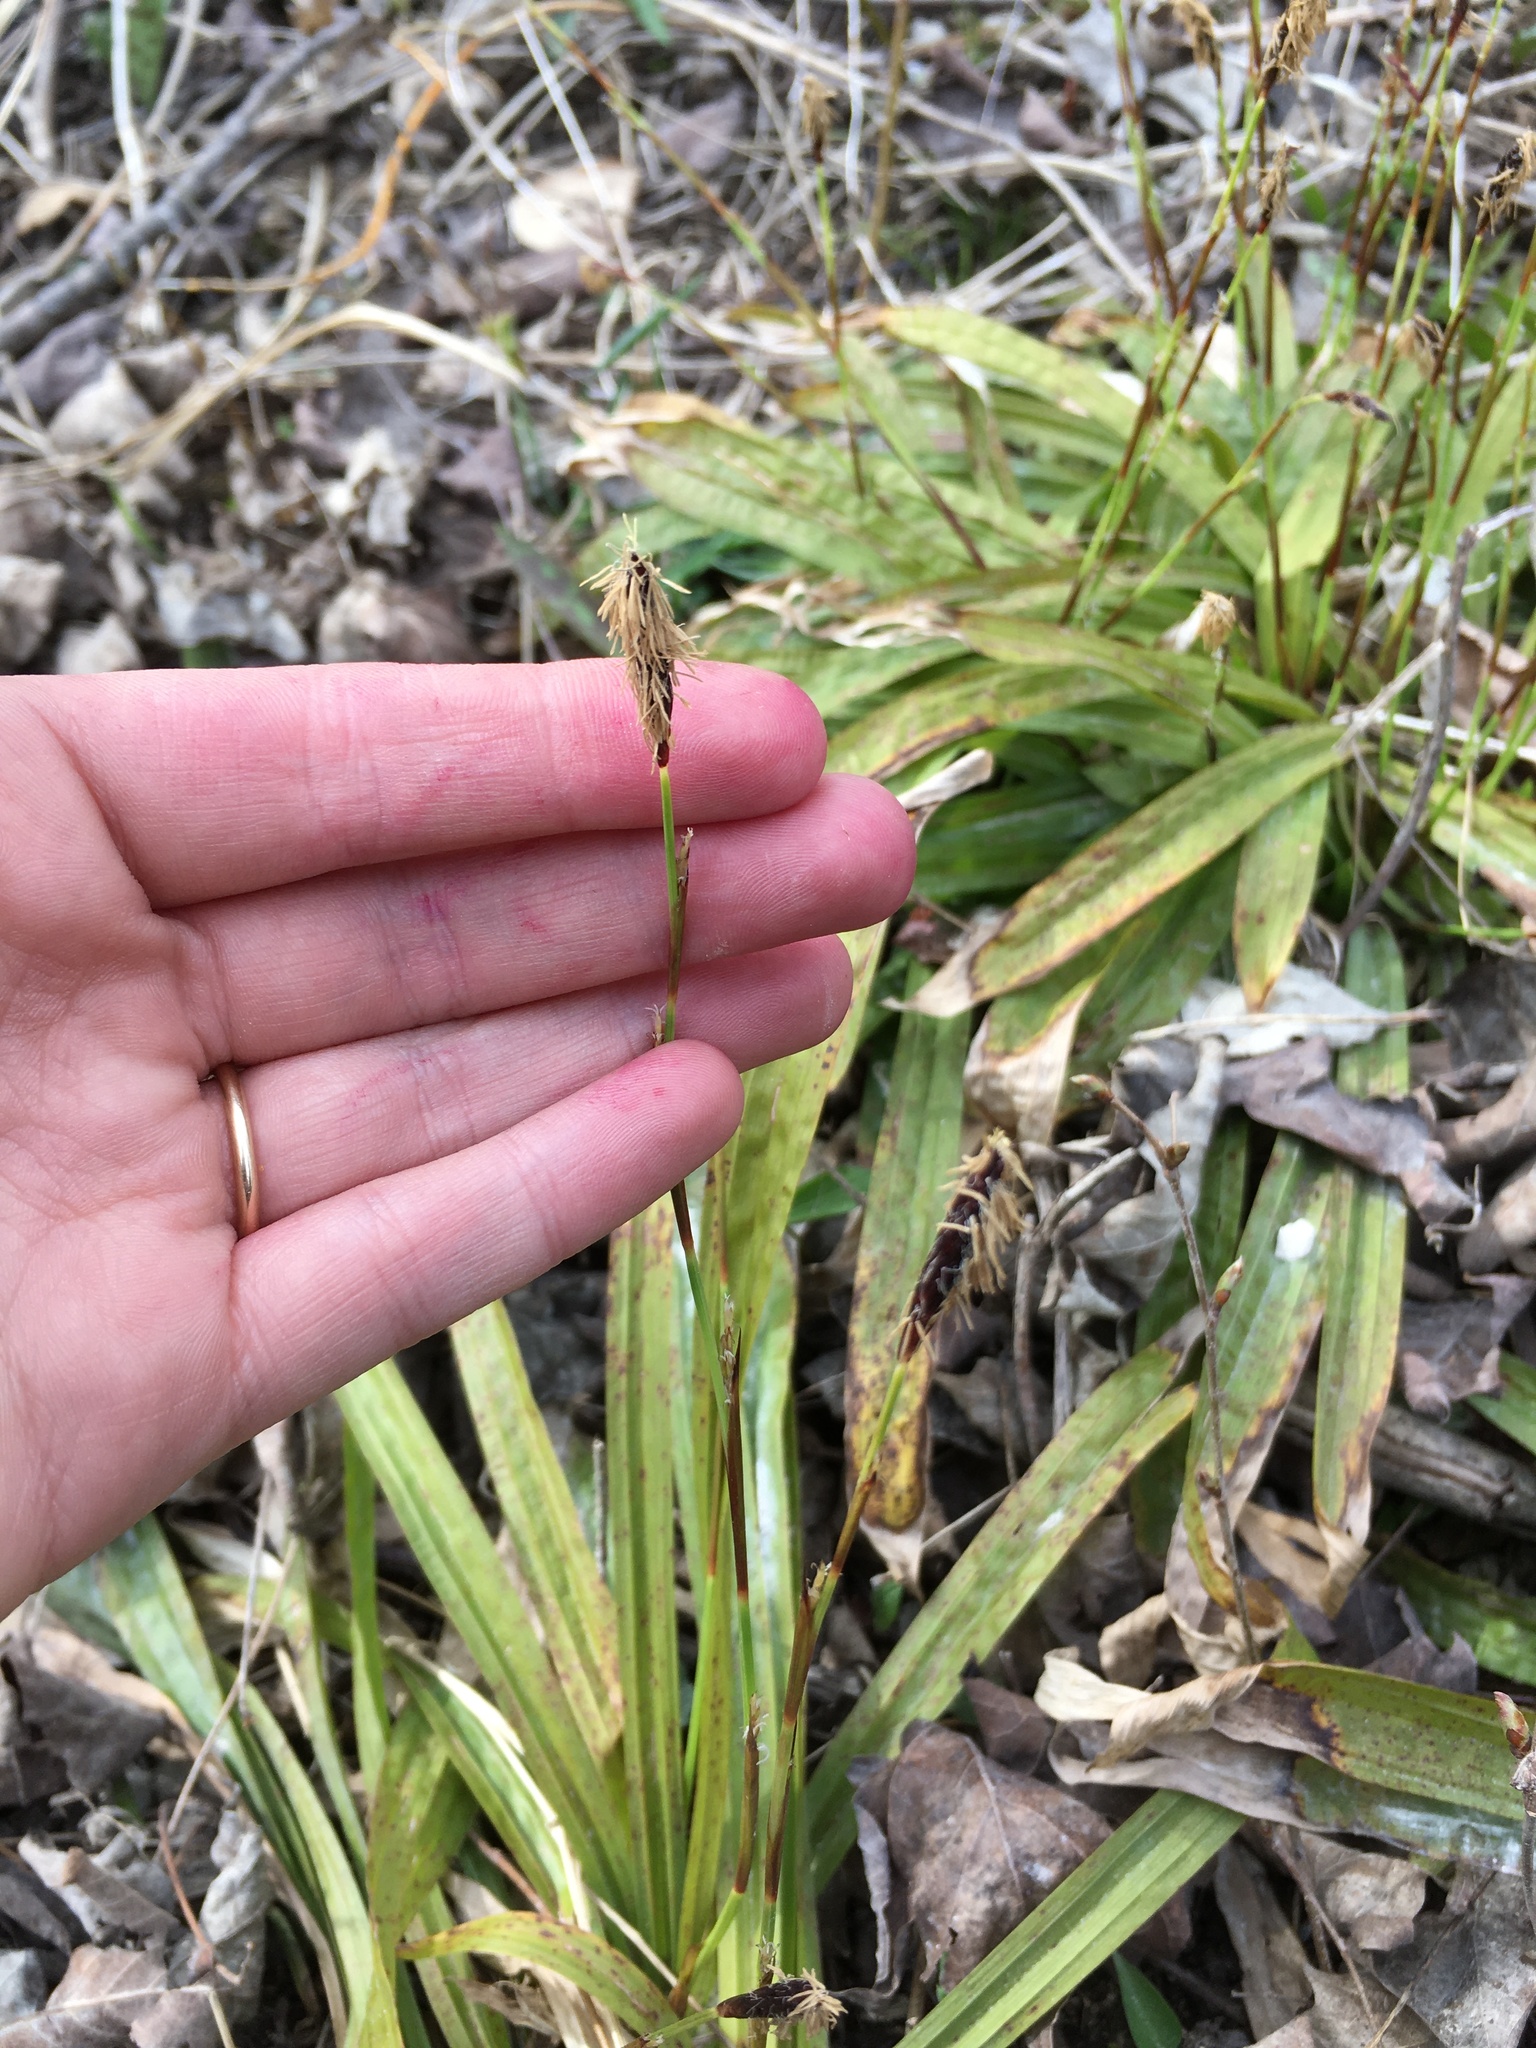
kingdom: Plantae
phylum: Tracheophyta
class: Liliopsida
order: Poales
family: Cyperaceae
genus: Carex
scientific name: Carex plantaginea
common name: Plantain-leaved sedge
